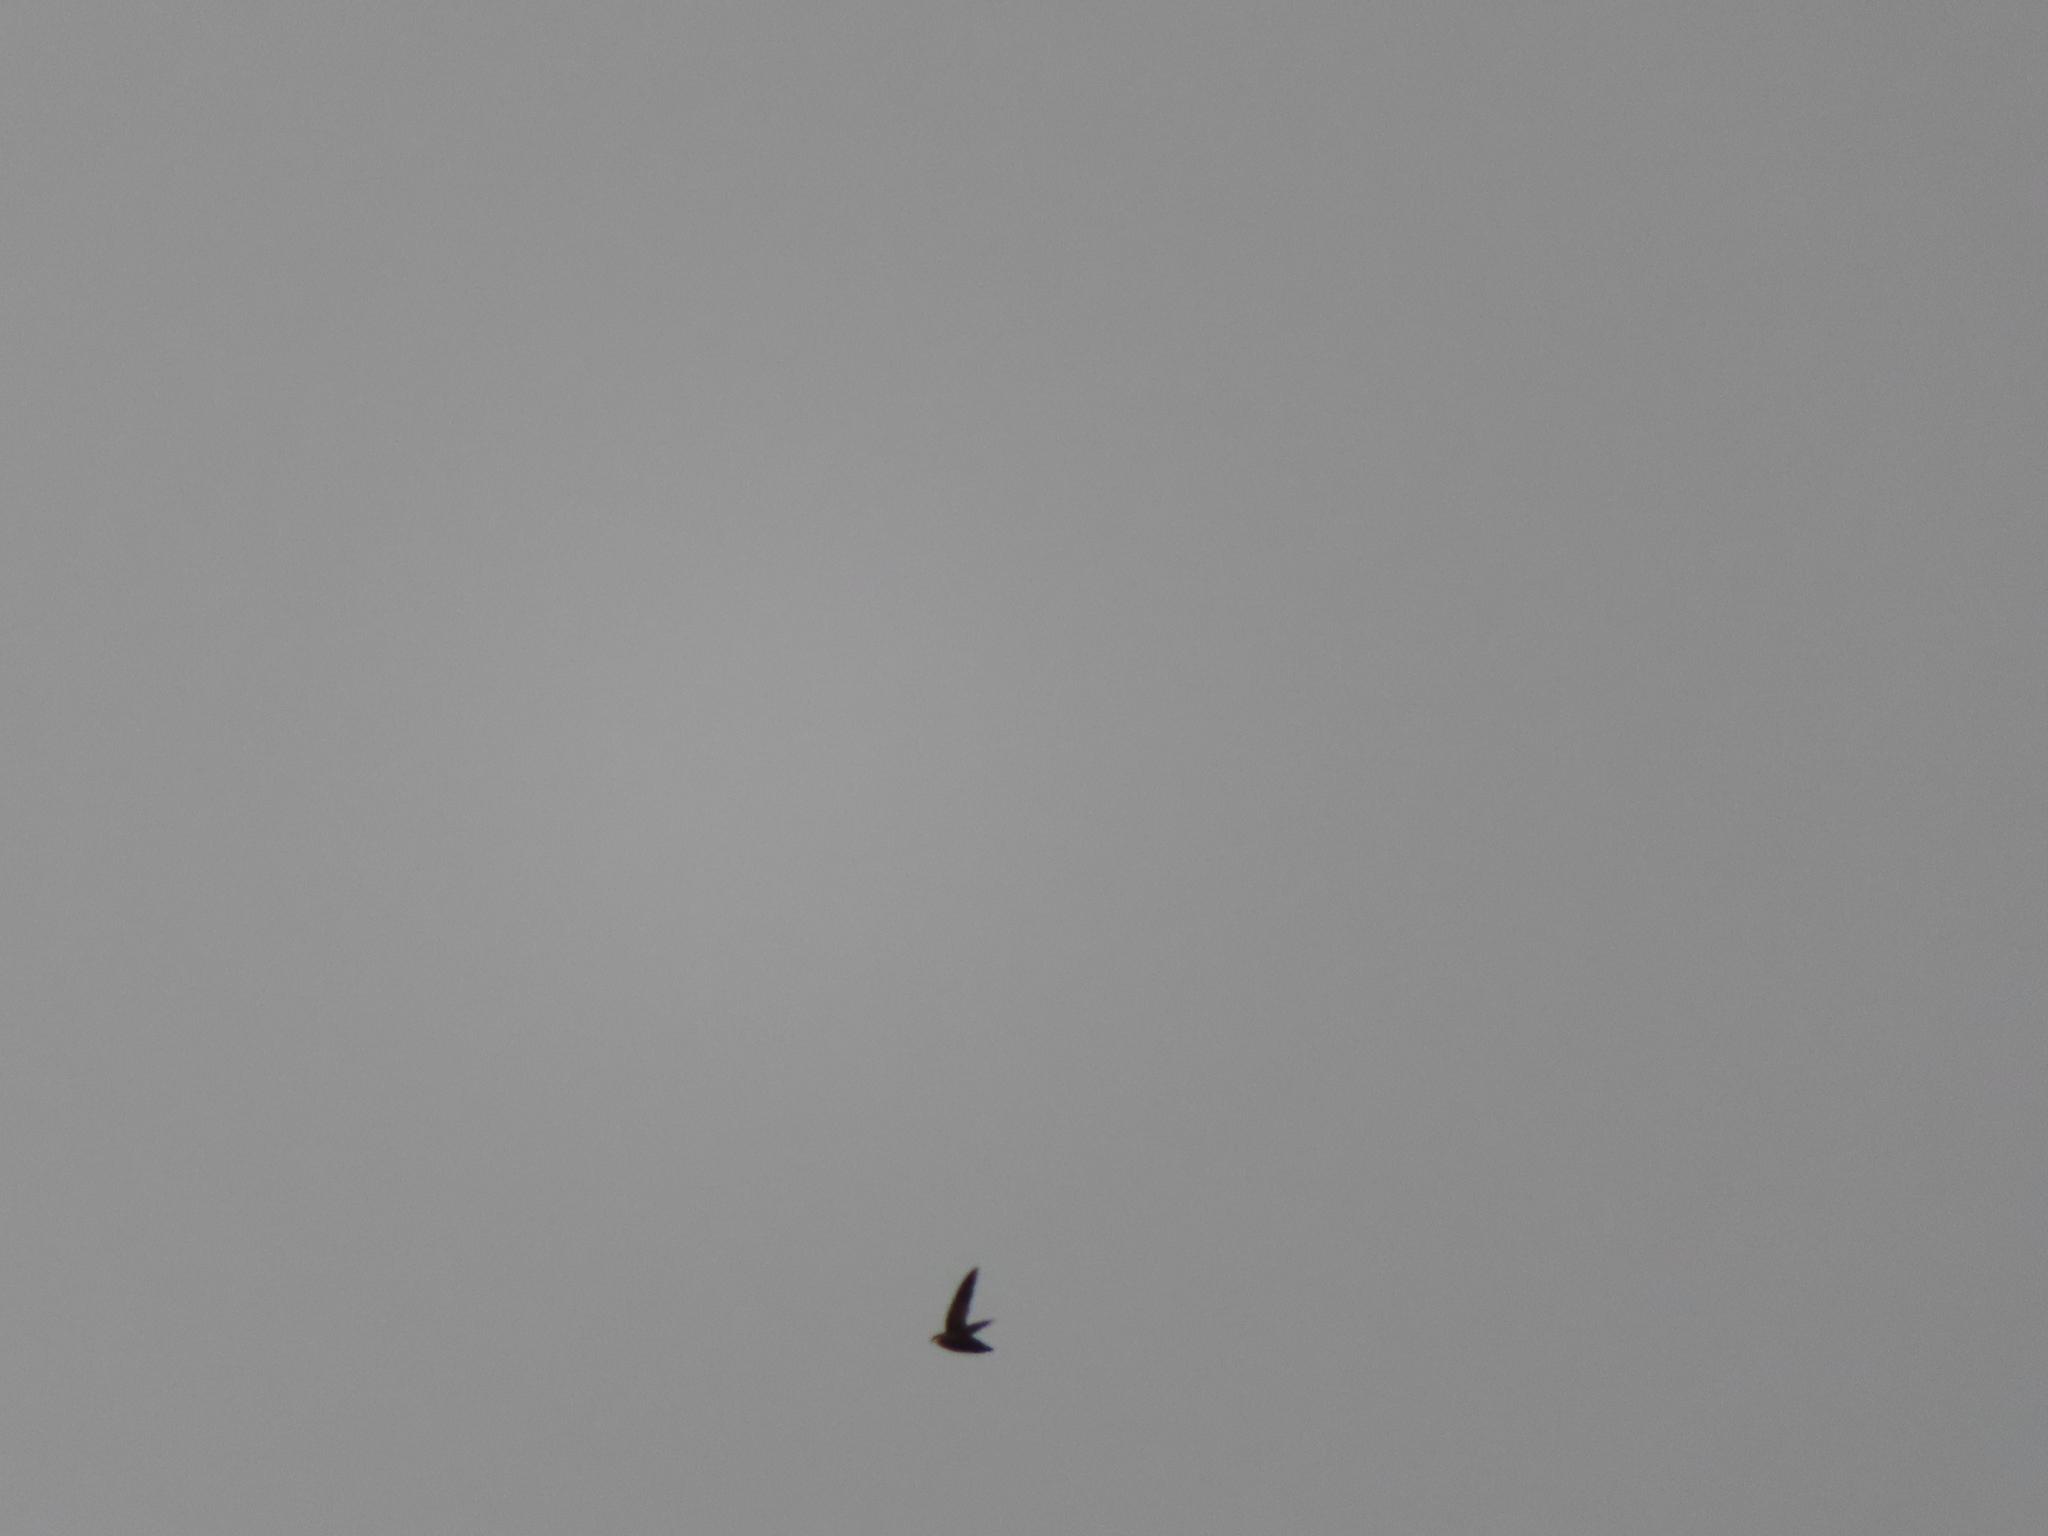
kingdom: Animalia
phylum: Chordata
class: Aves
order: Apodiformes
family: Apodidae
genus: Chaetura
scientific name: Chaetura pelagica
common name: Chimney swift
